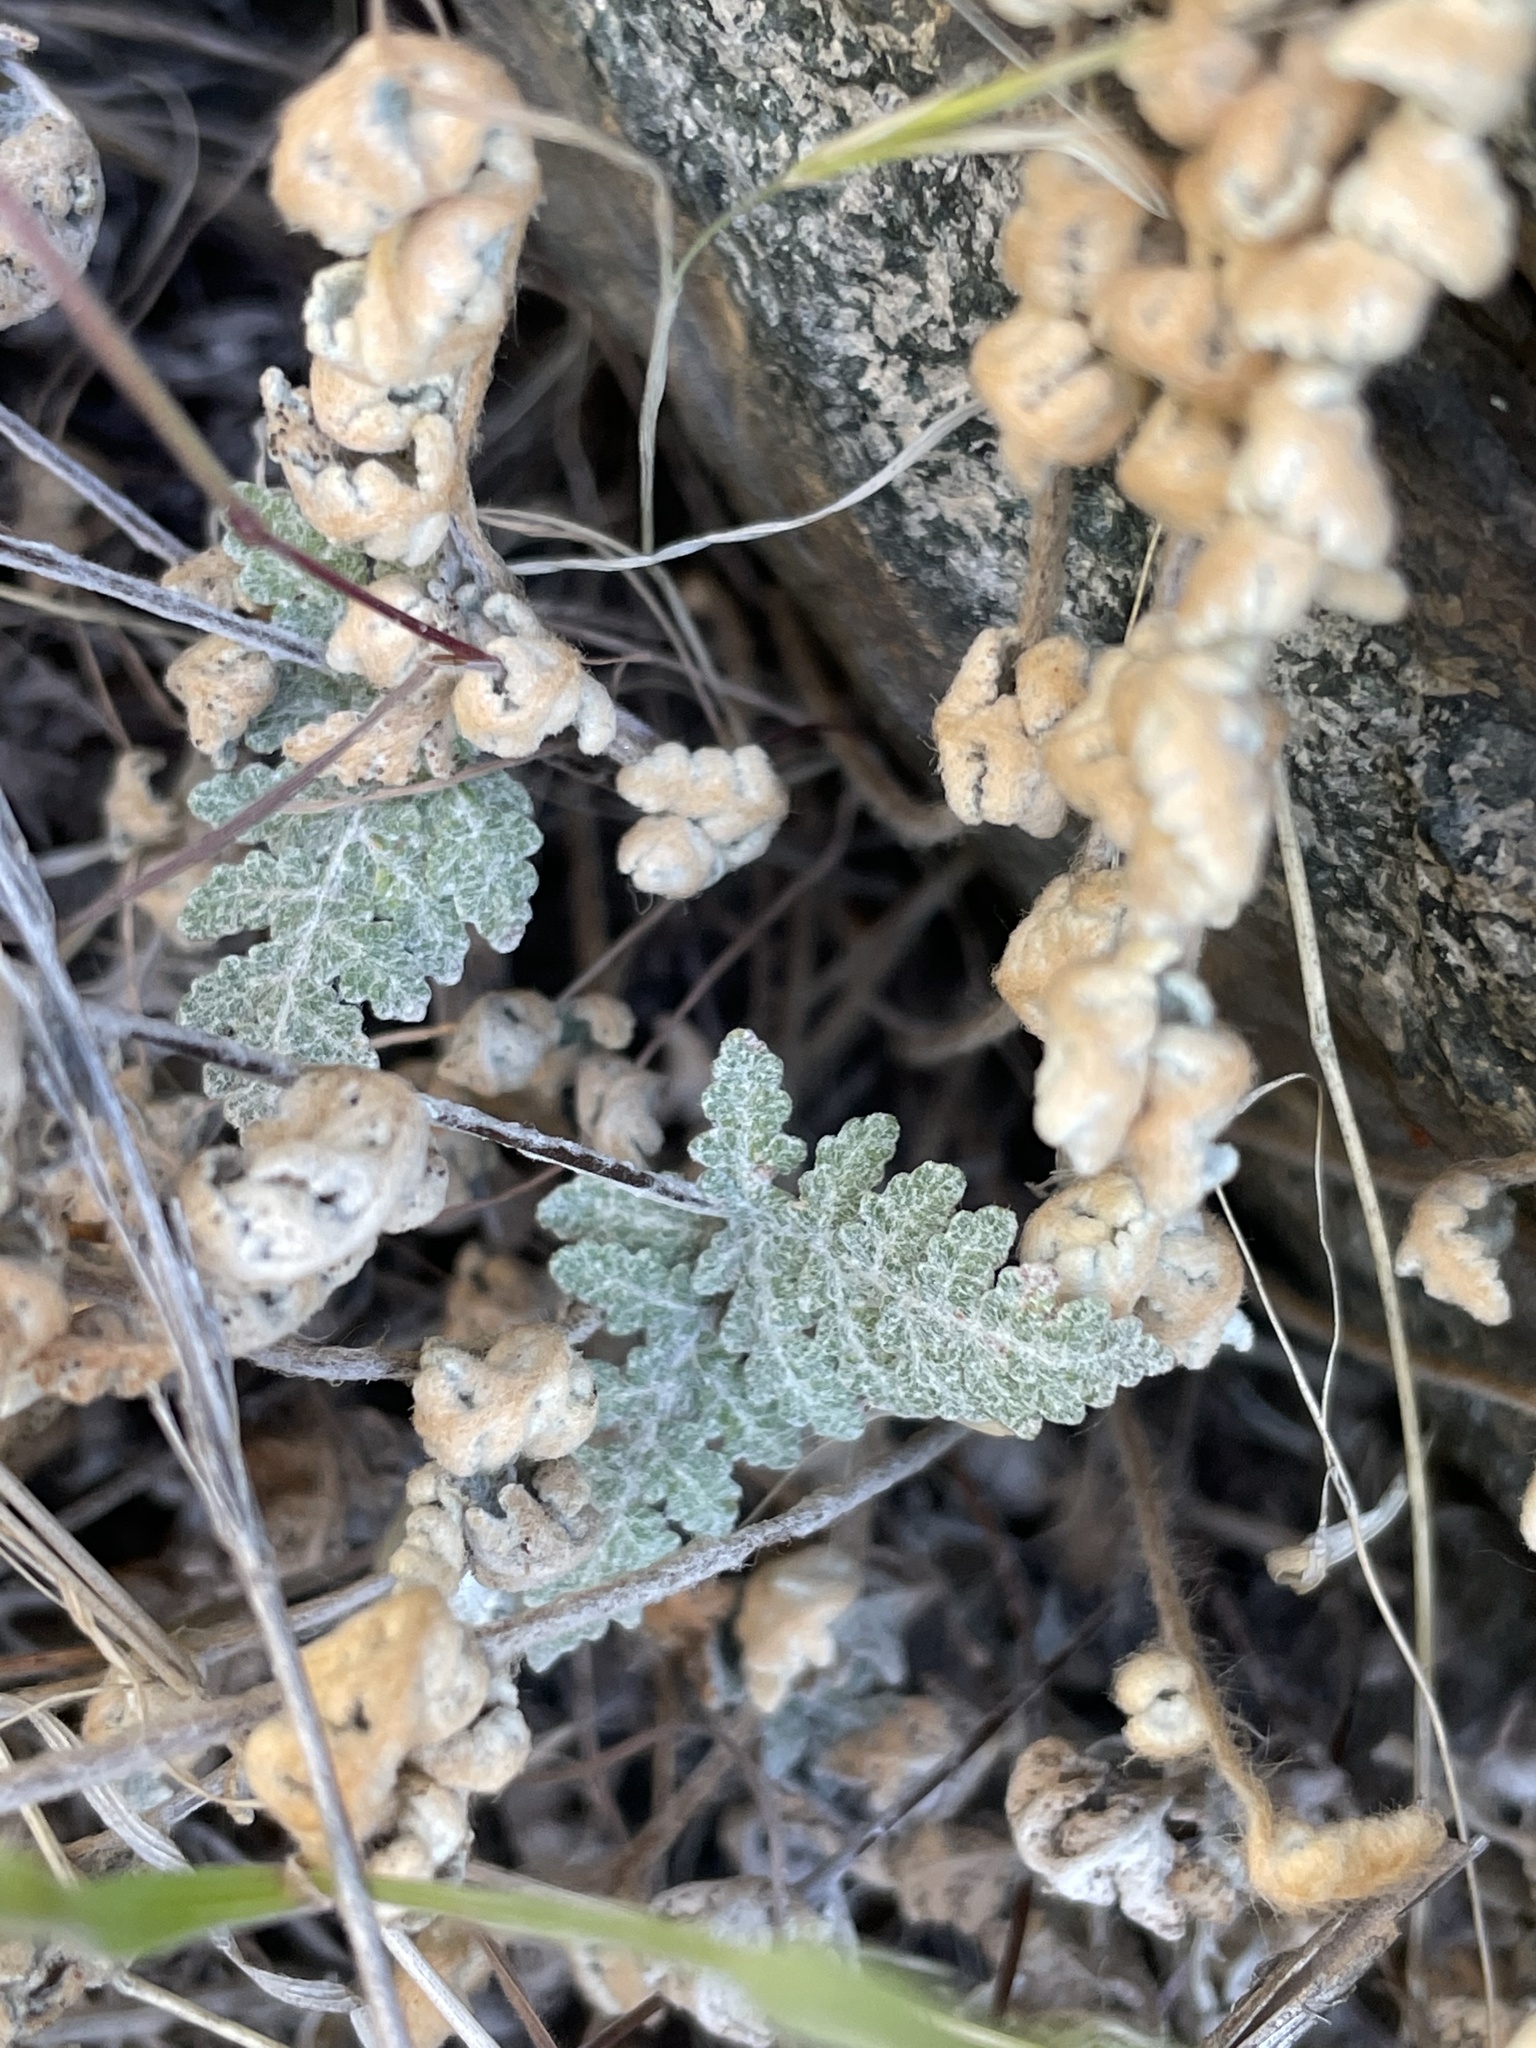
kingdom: Plantae
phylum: Tracheophyta
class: Polypodiopsida
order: Polypodiales
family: Pteridaceae
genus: Myriopteris
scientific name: Myriopteris newberryi
